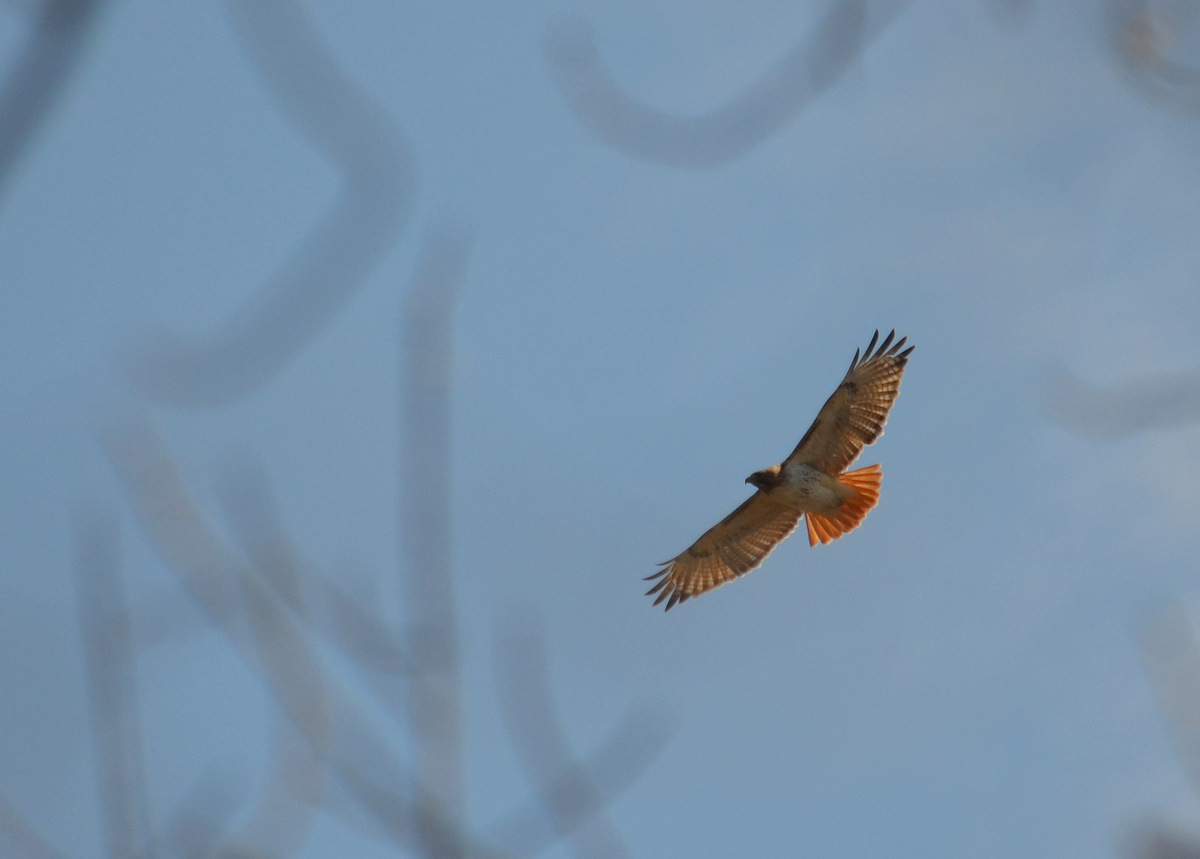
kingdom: Animalia
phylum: Chordata
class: Aves
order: Accipitriformes
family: Accipitridae
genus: Buteo
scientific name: Buteo jamaicensis
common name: Red-tailed hawk
